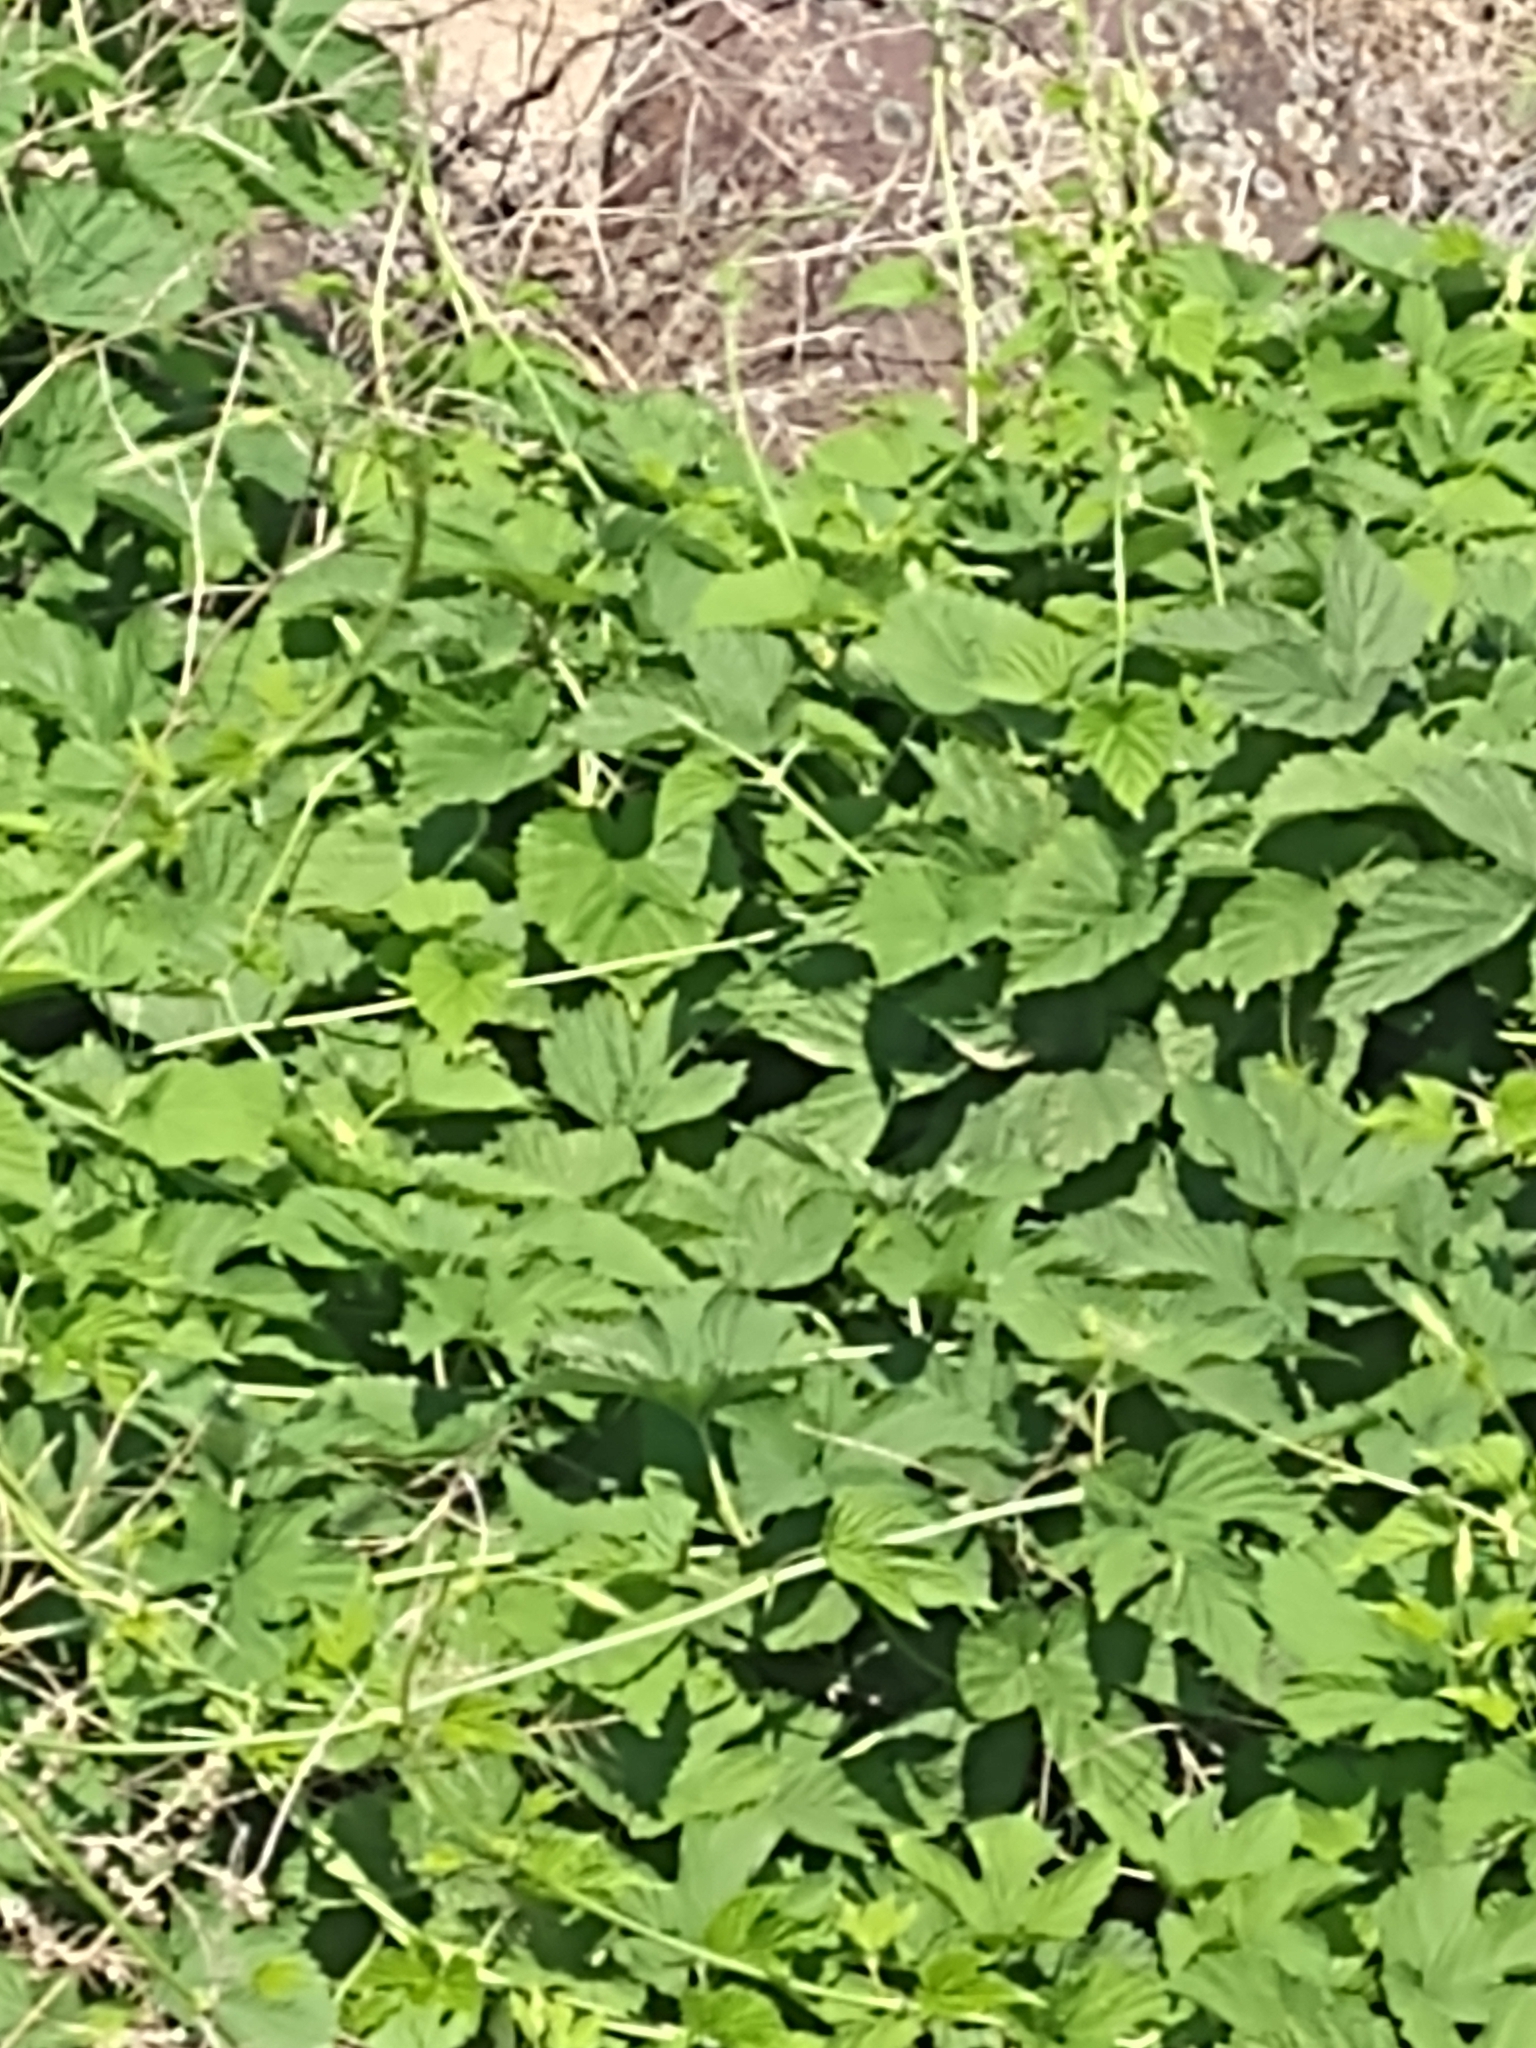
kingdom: Plantae
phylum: Tracheophyta
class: Magnoliopsida
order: Rosales
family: Cannabaceae
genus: Humulus
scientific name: Humulus lupulus
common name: Hop
